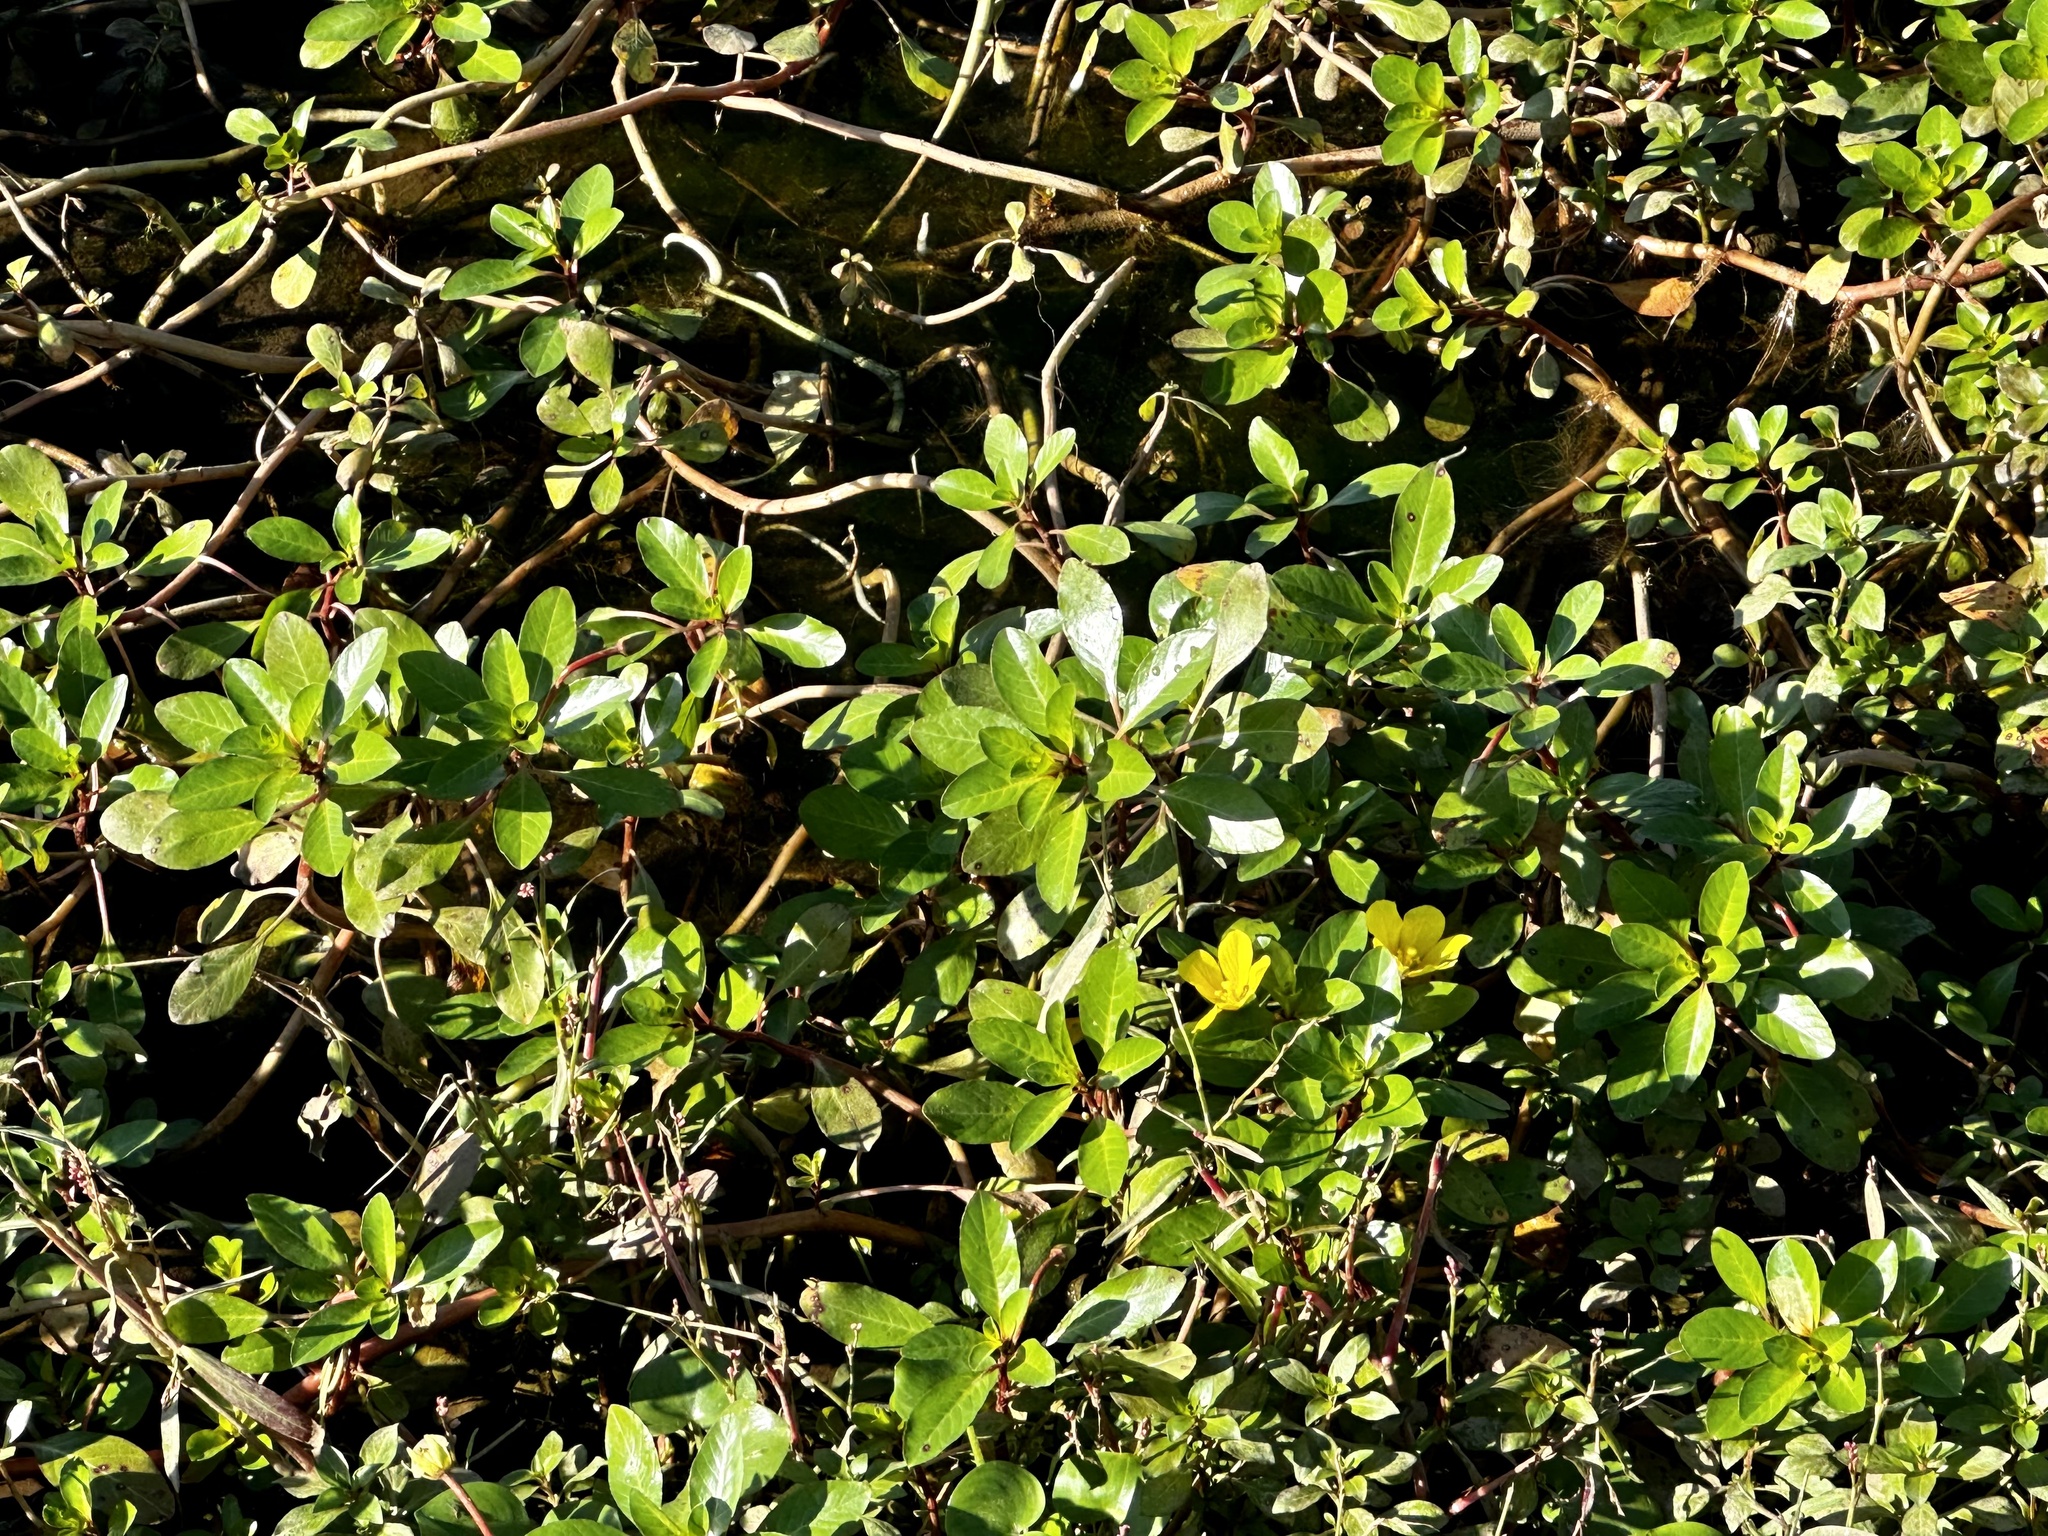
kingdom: Plantae
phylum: Tracheophyta
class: Magnoliopsida
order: Myrtales
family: Onagraceae
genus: Ludwigia
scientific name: Ludwigia peploides
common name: Floating primrose-willow
